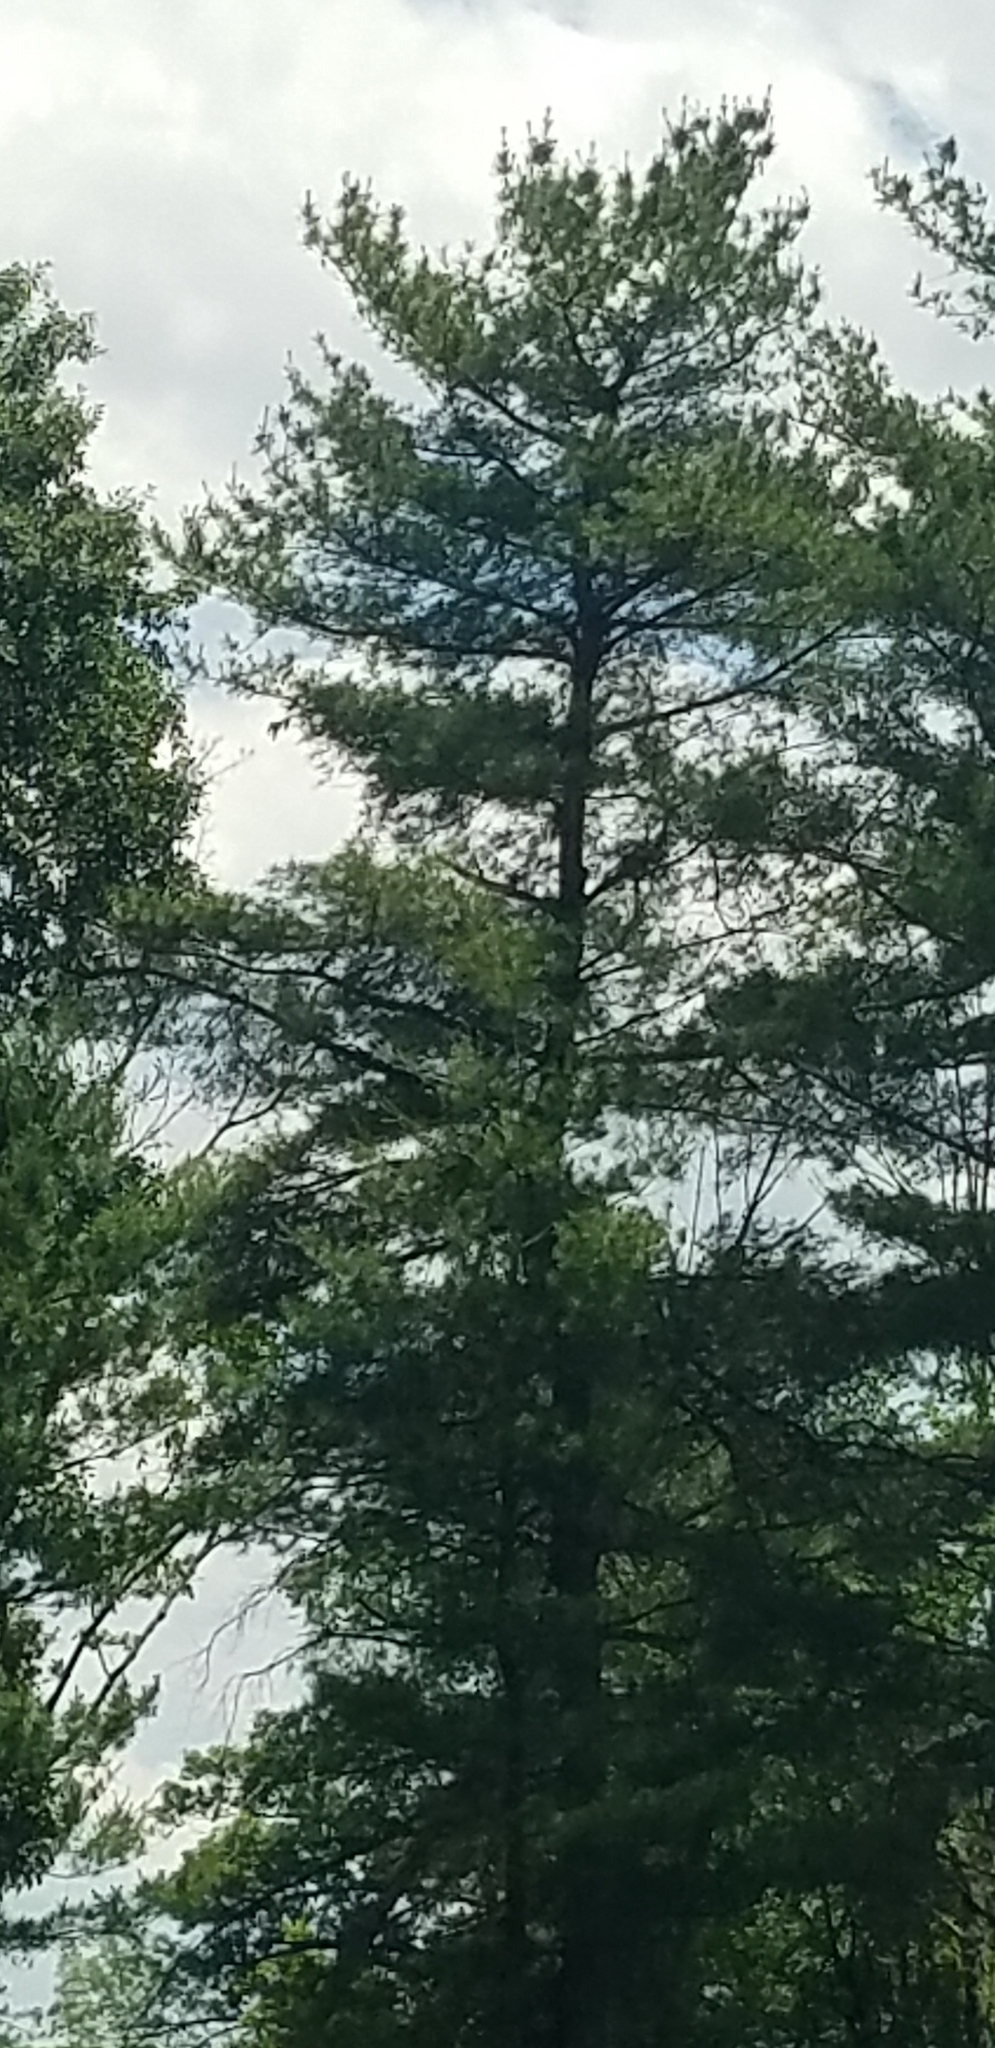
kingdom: Plantae
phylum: Tracheophyta
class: Pinopsida
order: Pinales
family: Pinaceae
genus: Pinus
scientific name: Pinus strobus
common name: Weymouth pine
